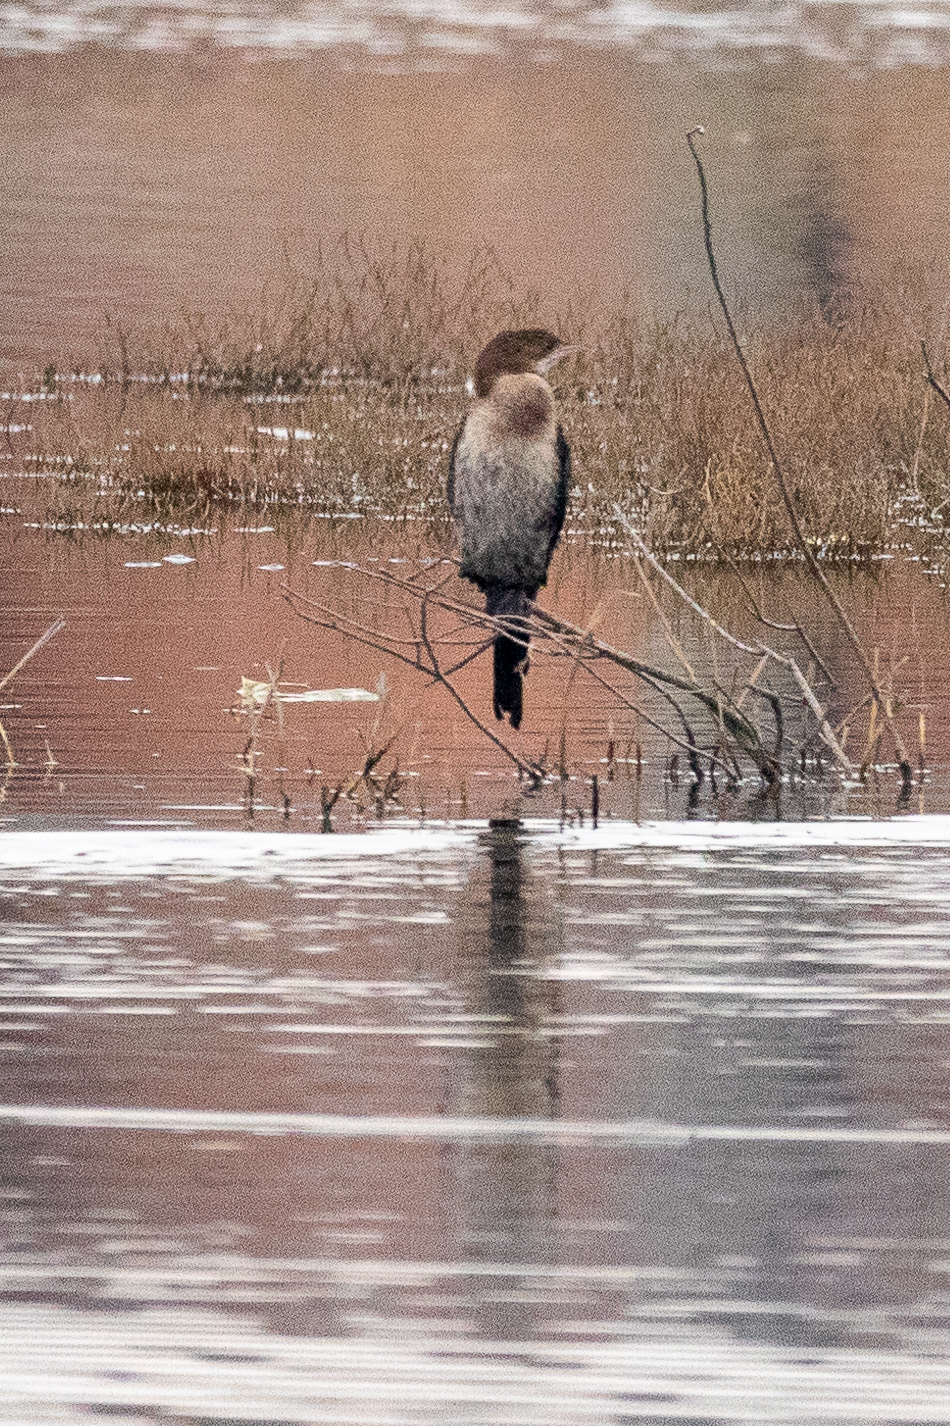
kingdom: Animalia
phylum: Chordata
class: Aves
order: Suliformes
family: Phalacrocoracidae
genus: Microcarbo
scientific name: Microcarbo pygmaeus
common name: Pygmy cormorant
